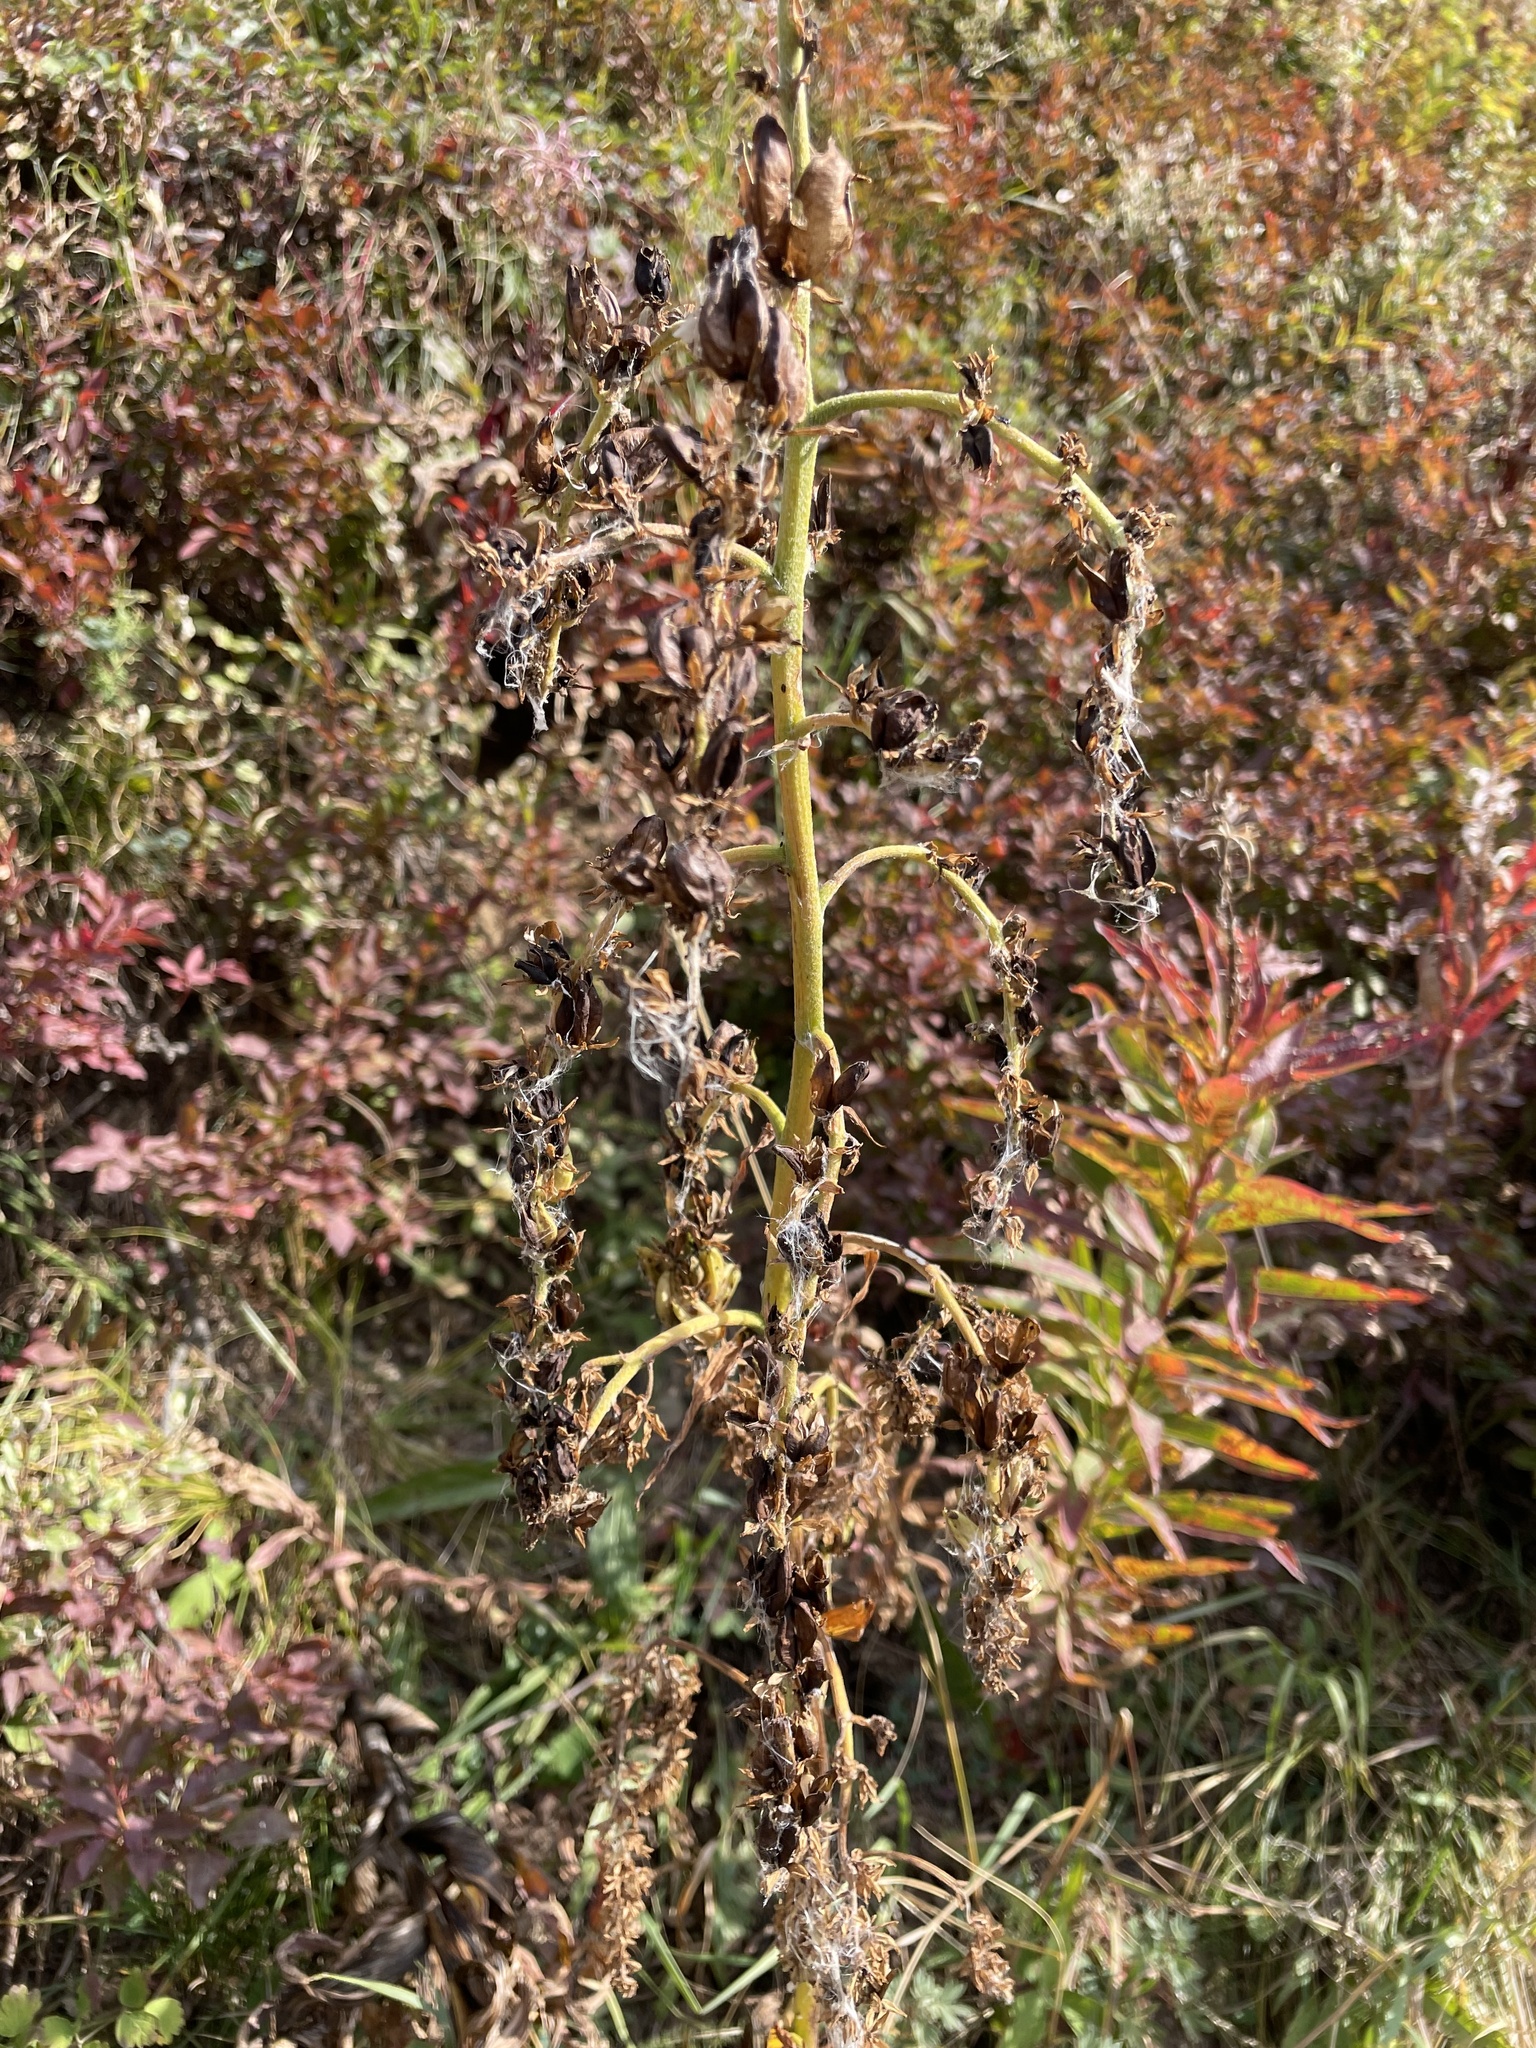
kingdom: Plantae
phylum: Tracheophyta
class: Liliopsida
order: Liliales
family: Melanthiaceae
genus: Veratrum
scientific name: Veratrum viride
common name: American false hellebore
